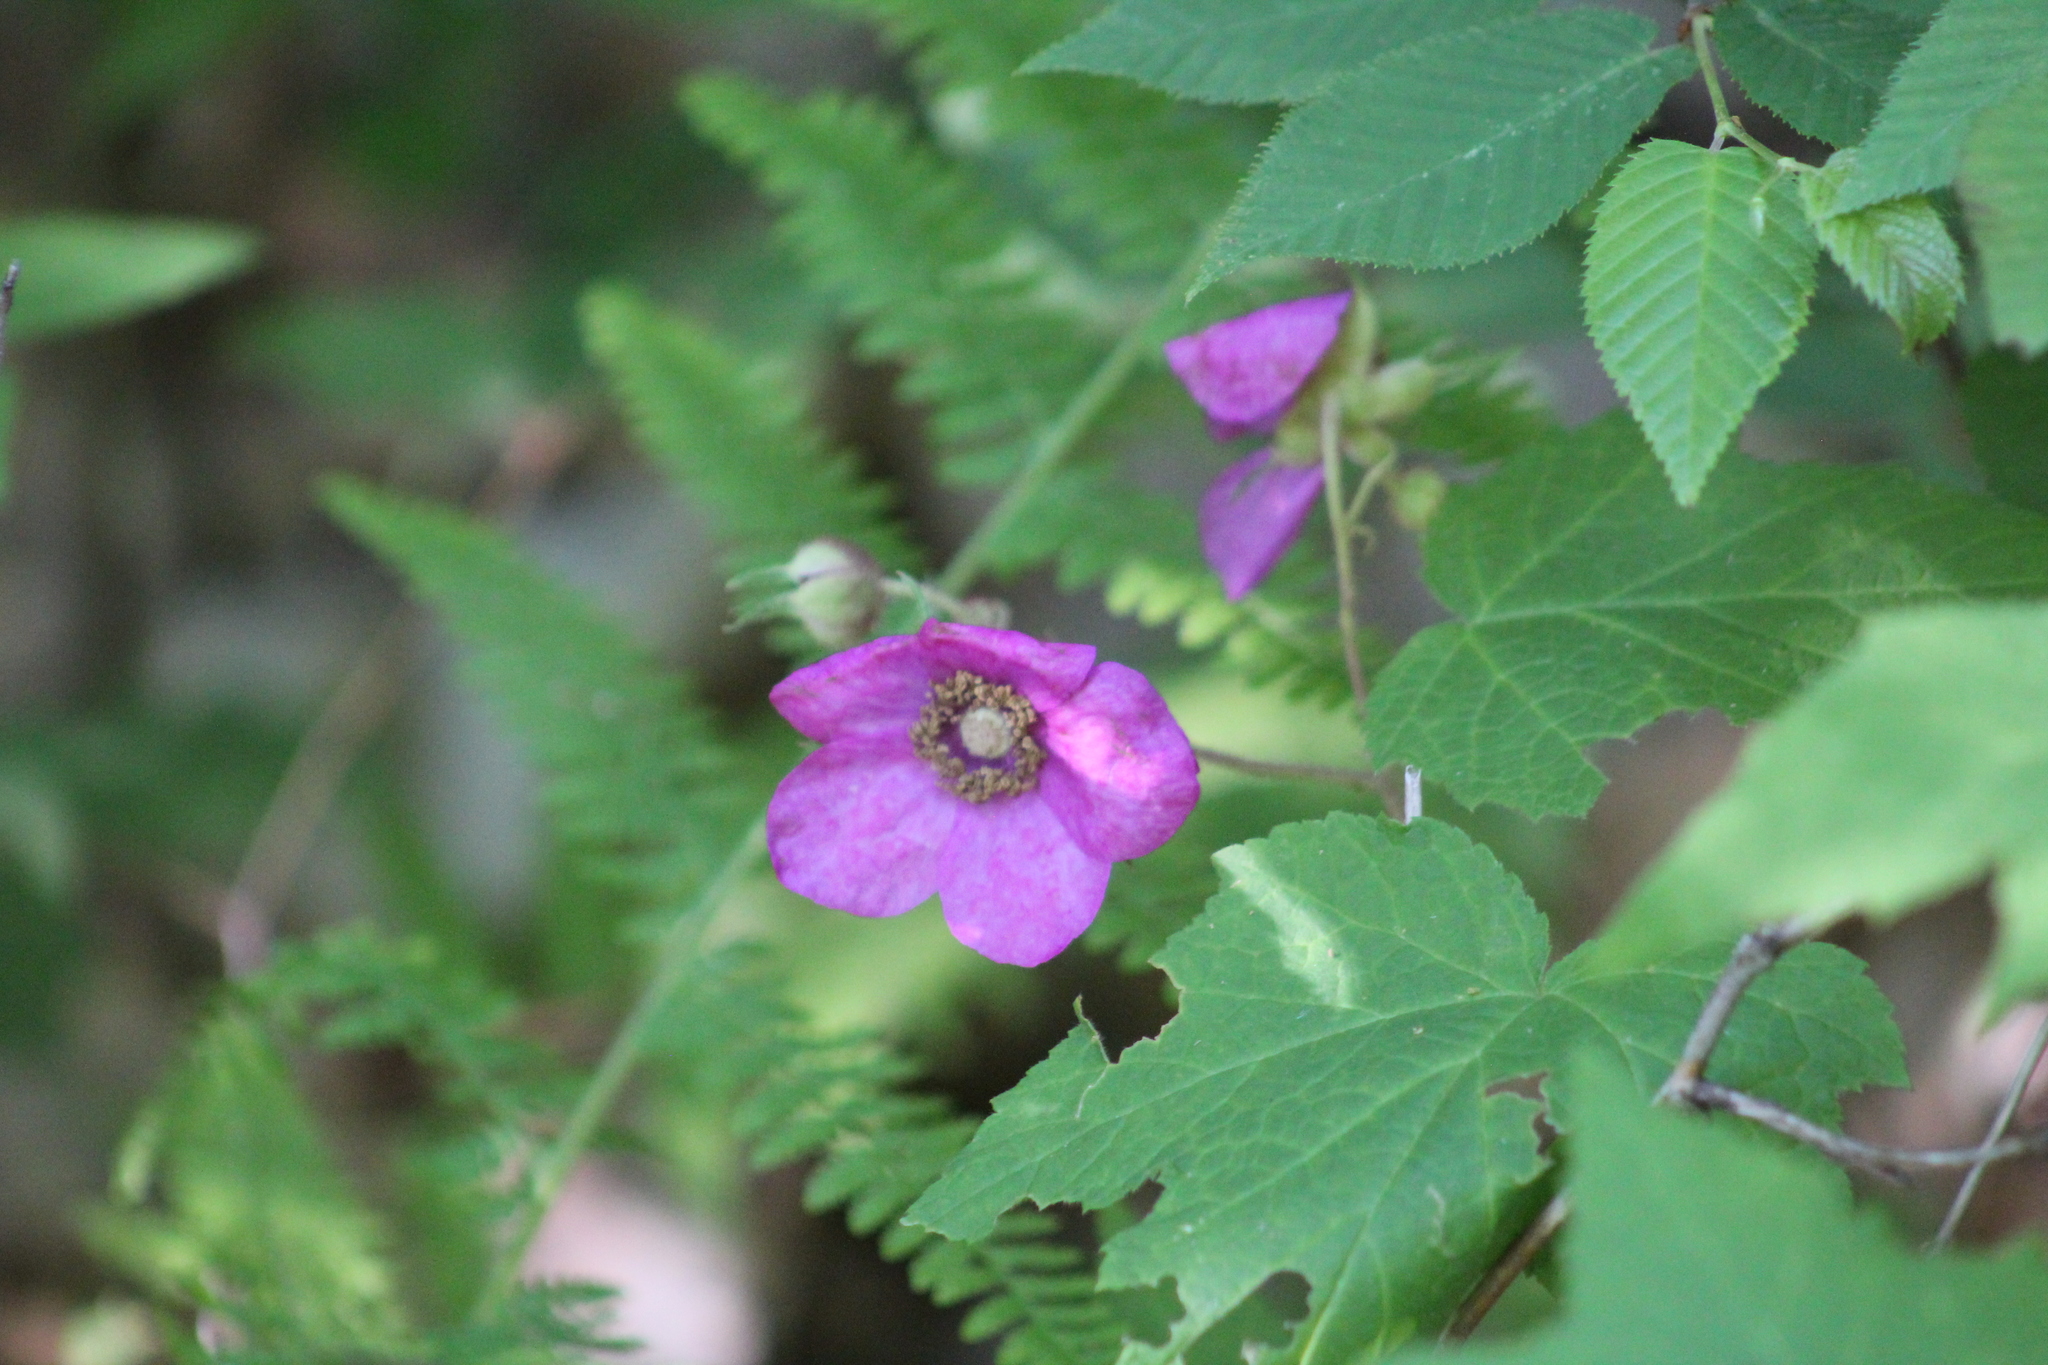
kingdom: Plantae
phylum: Tracheophyta
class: Magnoliopsida
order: Rosales
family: Rosaceae
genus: Rubus
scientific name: Rubus odoratus
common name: Purple-flowered raspberry
